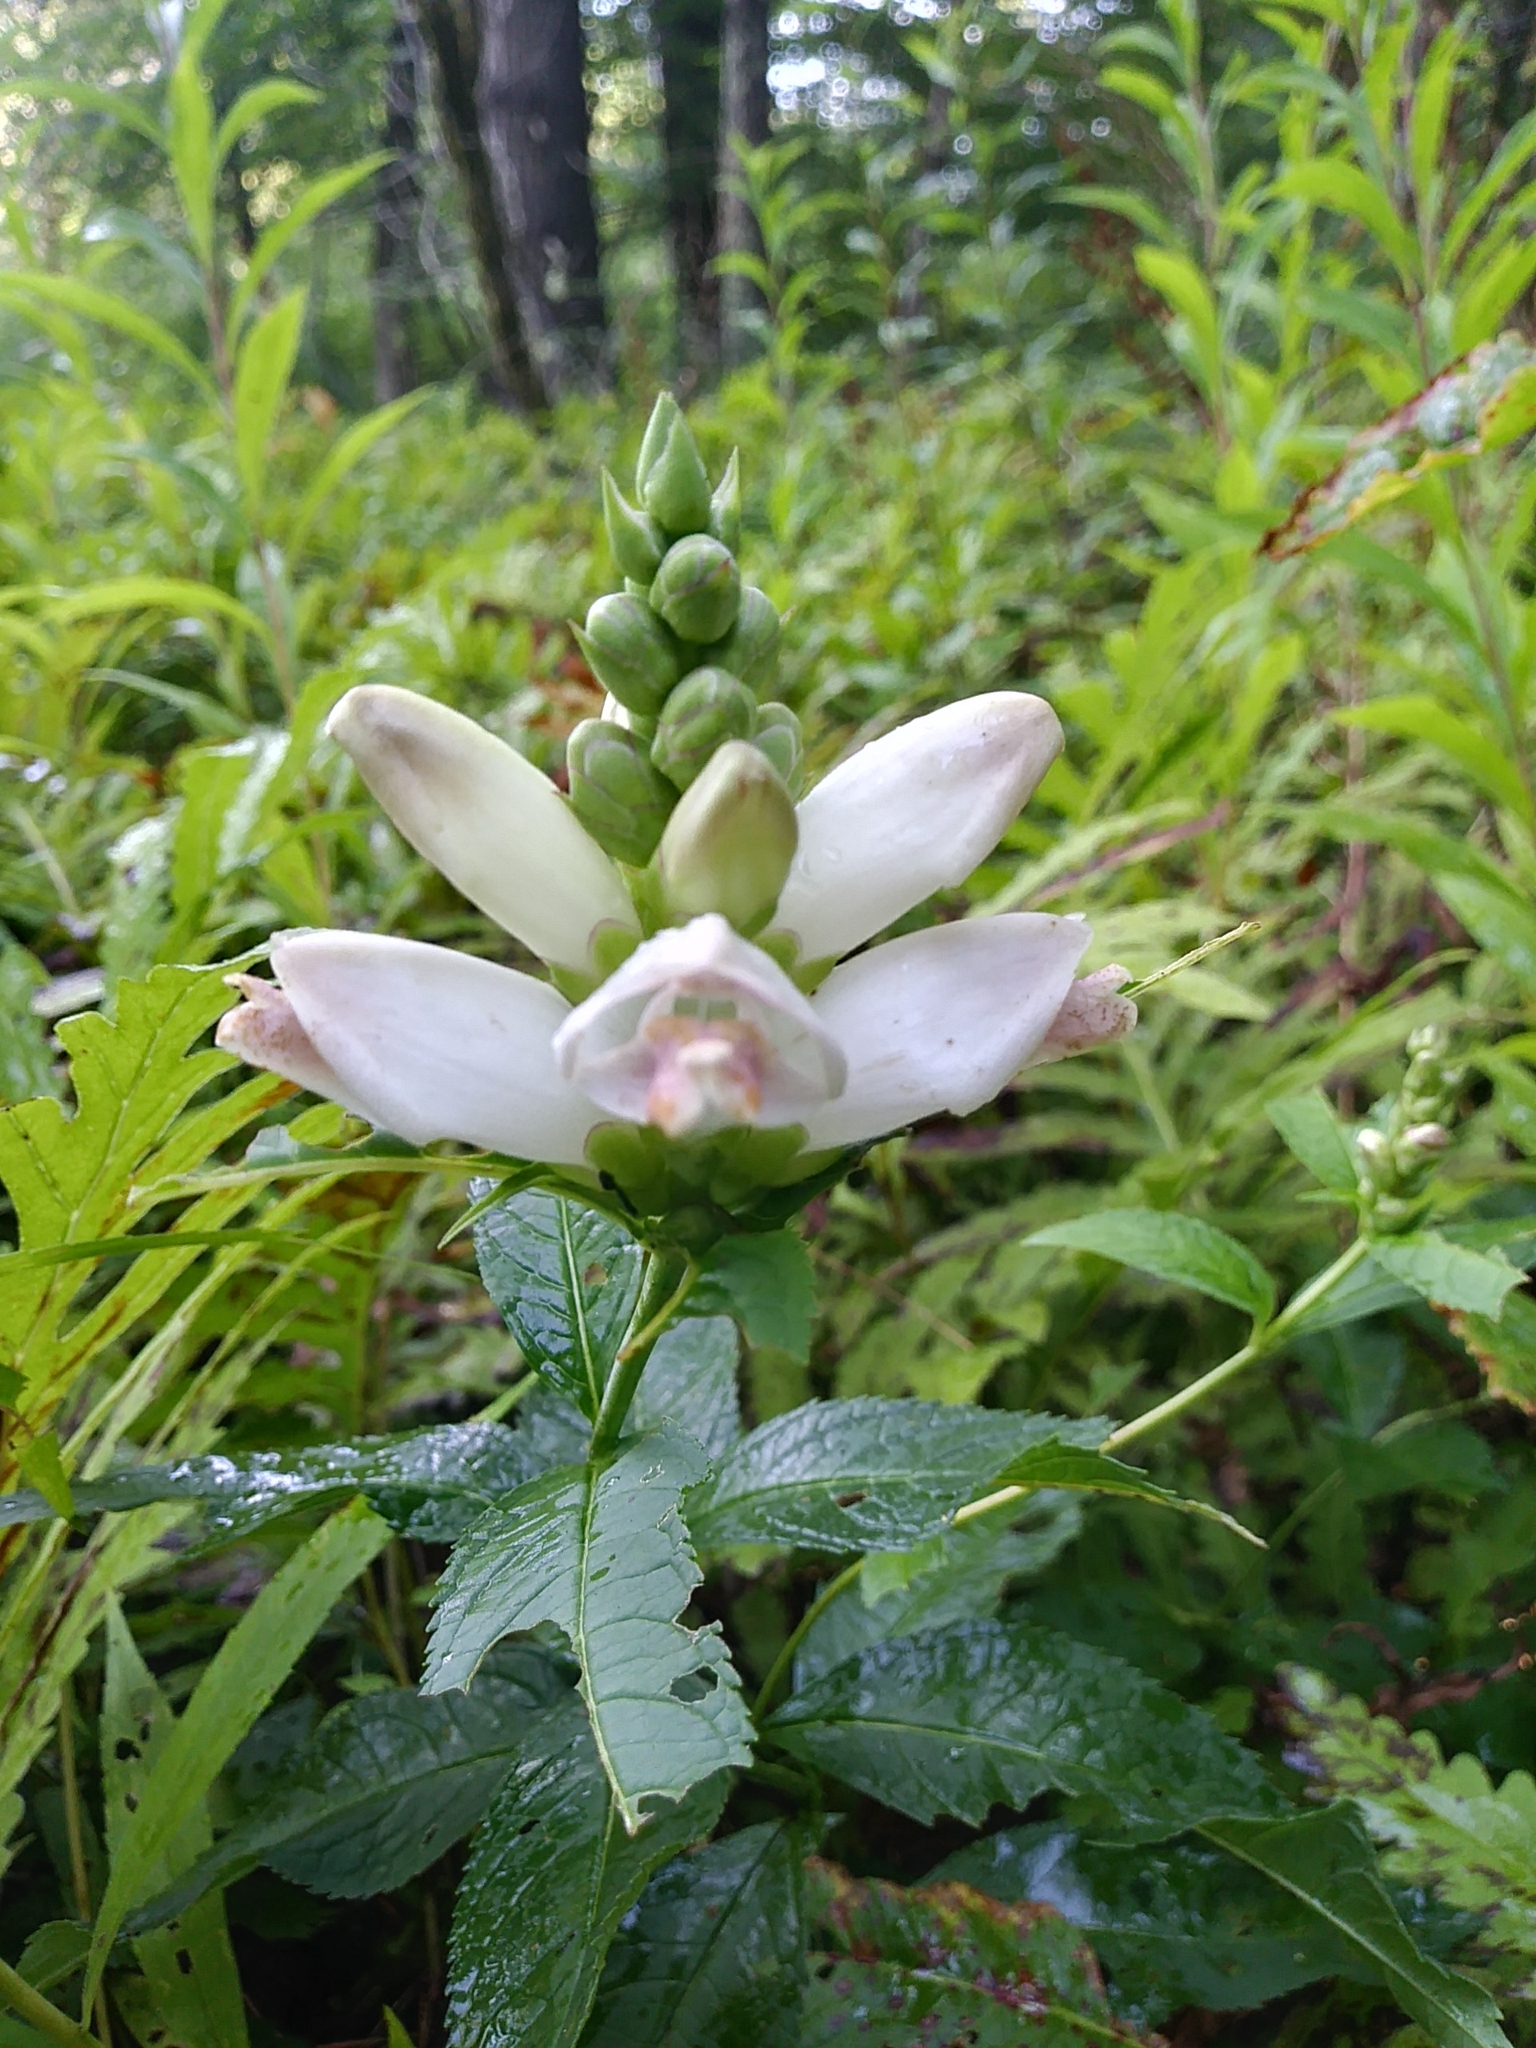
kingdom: Plantae
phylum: Tracheophyta
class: Magnoliopsida
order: Lamiales
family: Plantaginaceae
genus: Chelone
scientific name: Chelone glabra
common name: Snakehead
